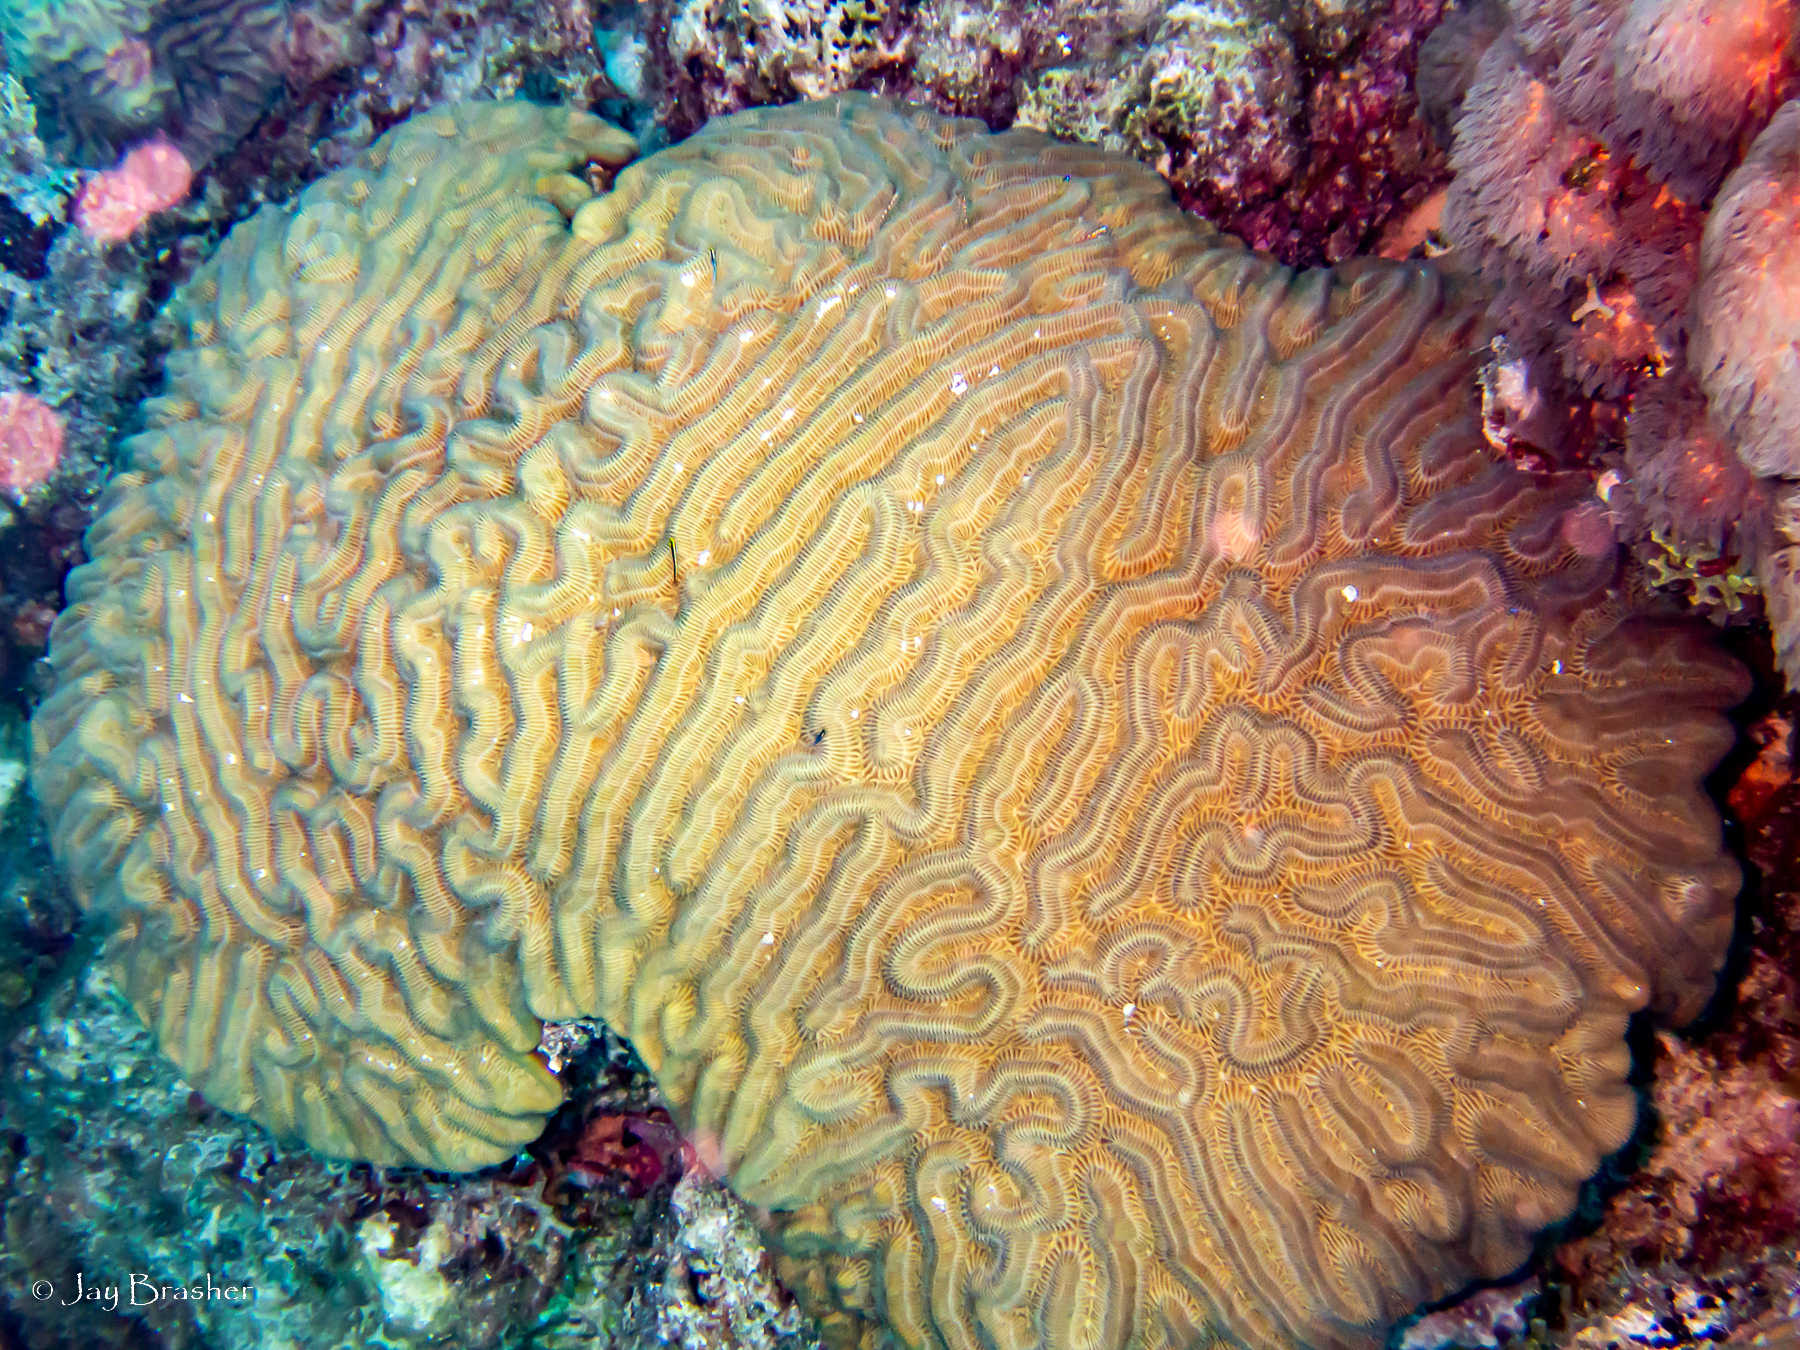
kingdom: Animalia
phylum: Cnidaria
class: Anthozoa
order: Scleractinia
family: Faviidae
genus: Colpophyllia
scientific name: Colpophyllia natans
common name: Boulder brain coral
